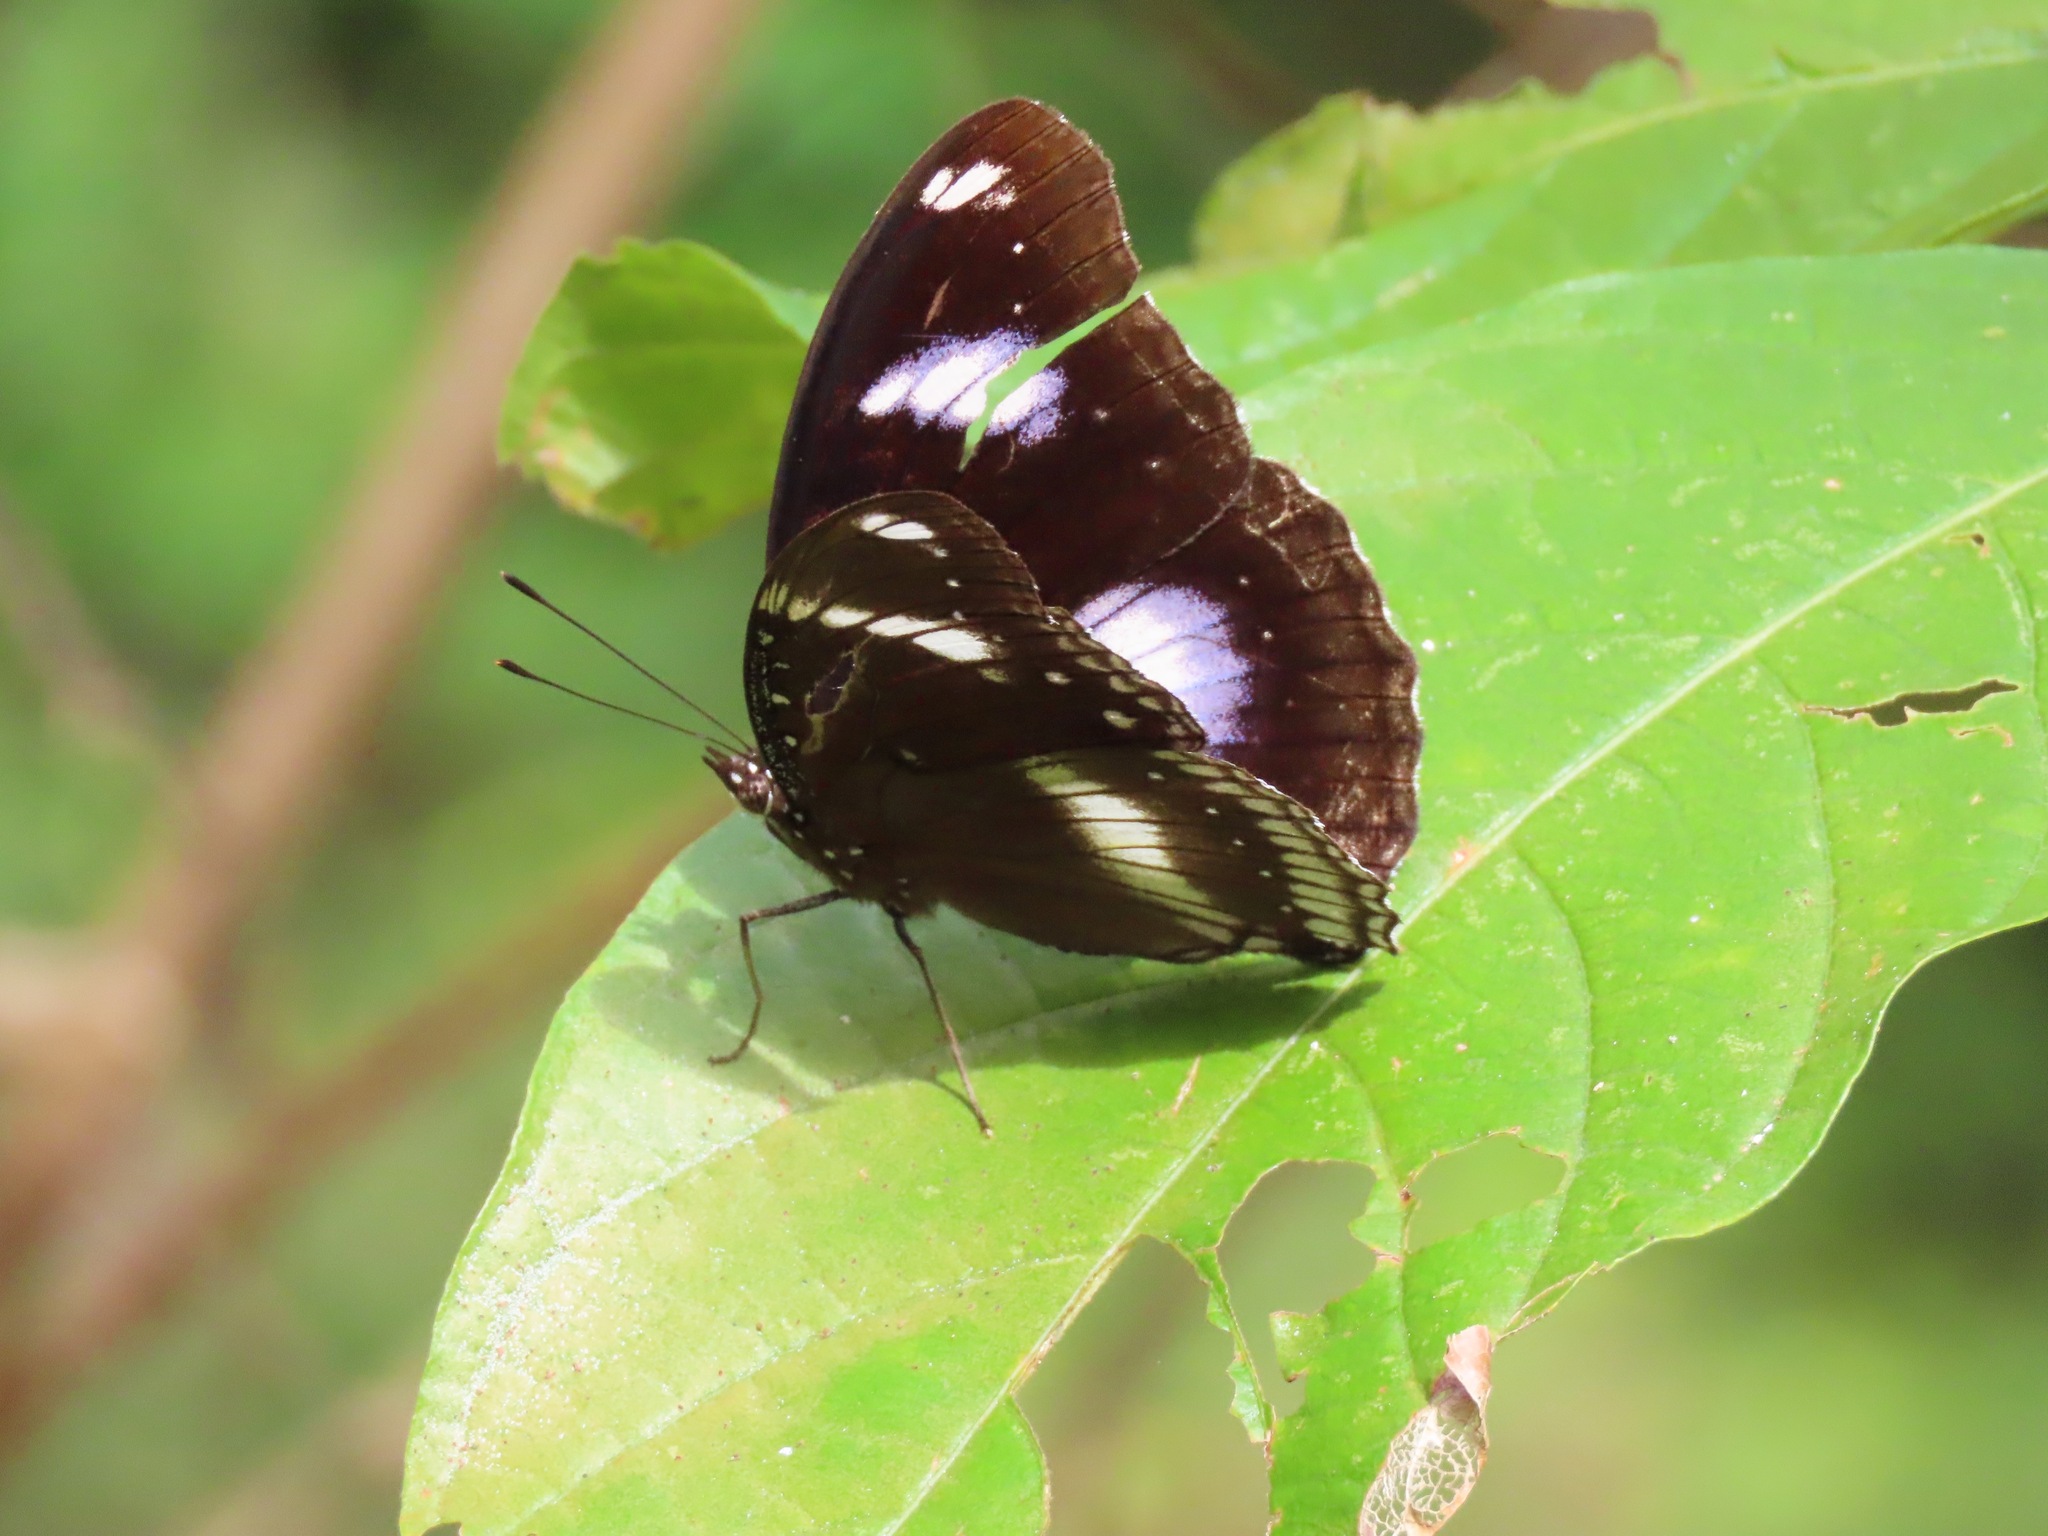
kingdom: Animalia
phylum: Arthropoda
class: Insecta
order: Lepidoptera
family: Nymphalidae
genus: Hypolimnas
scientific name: Hypolimnas bolina
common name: Great eggfly
